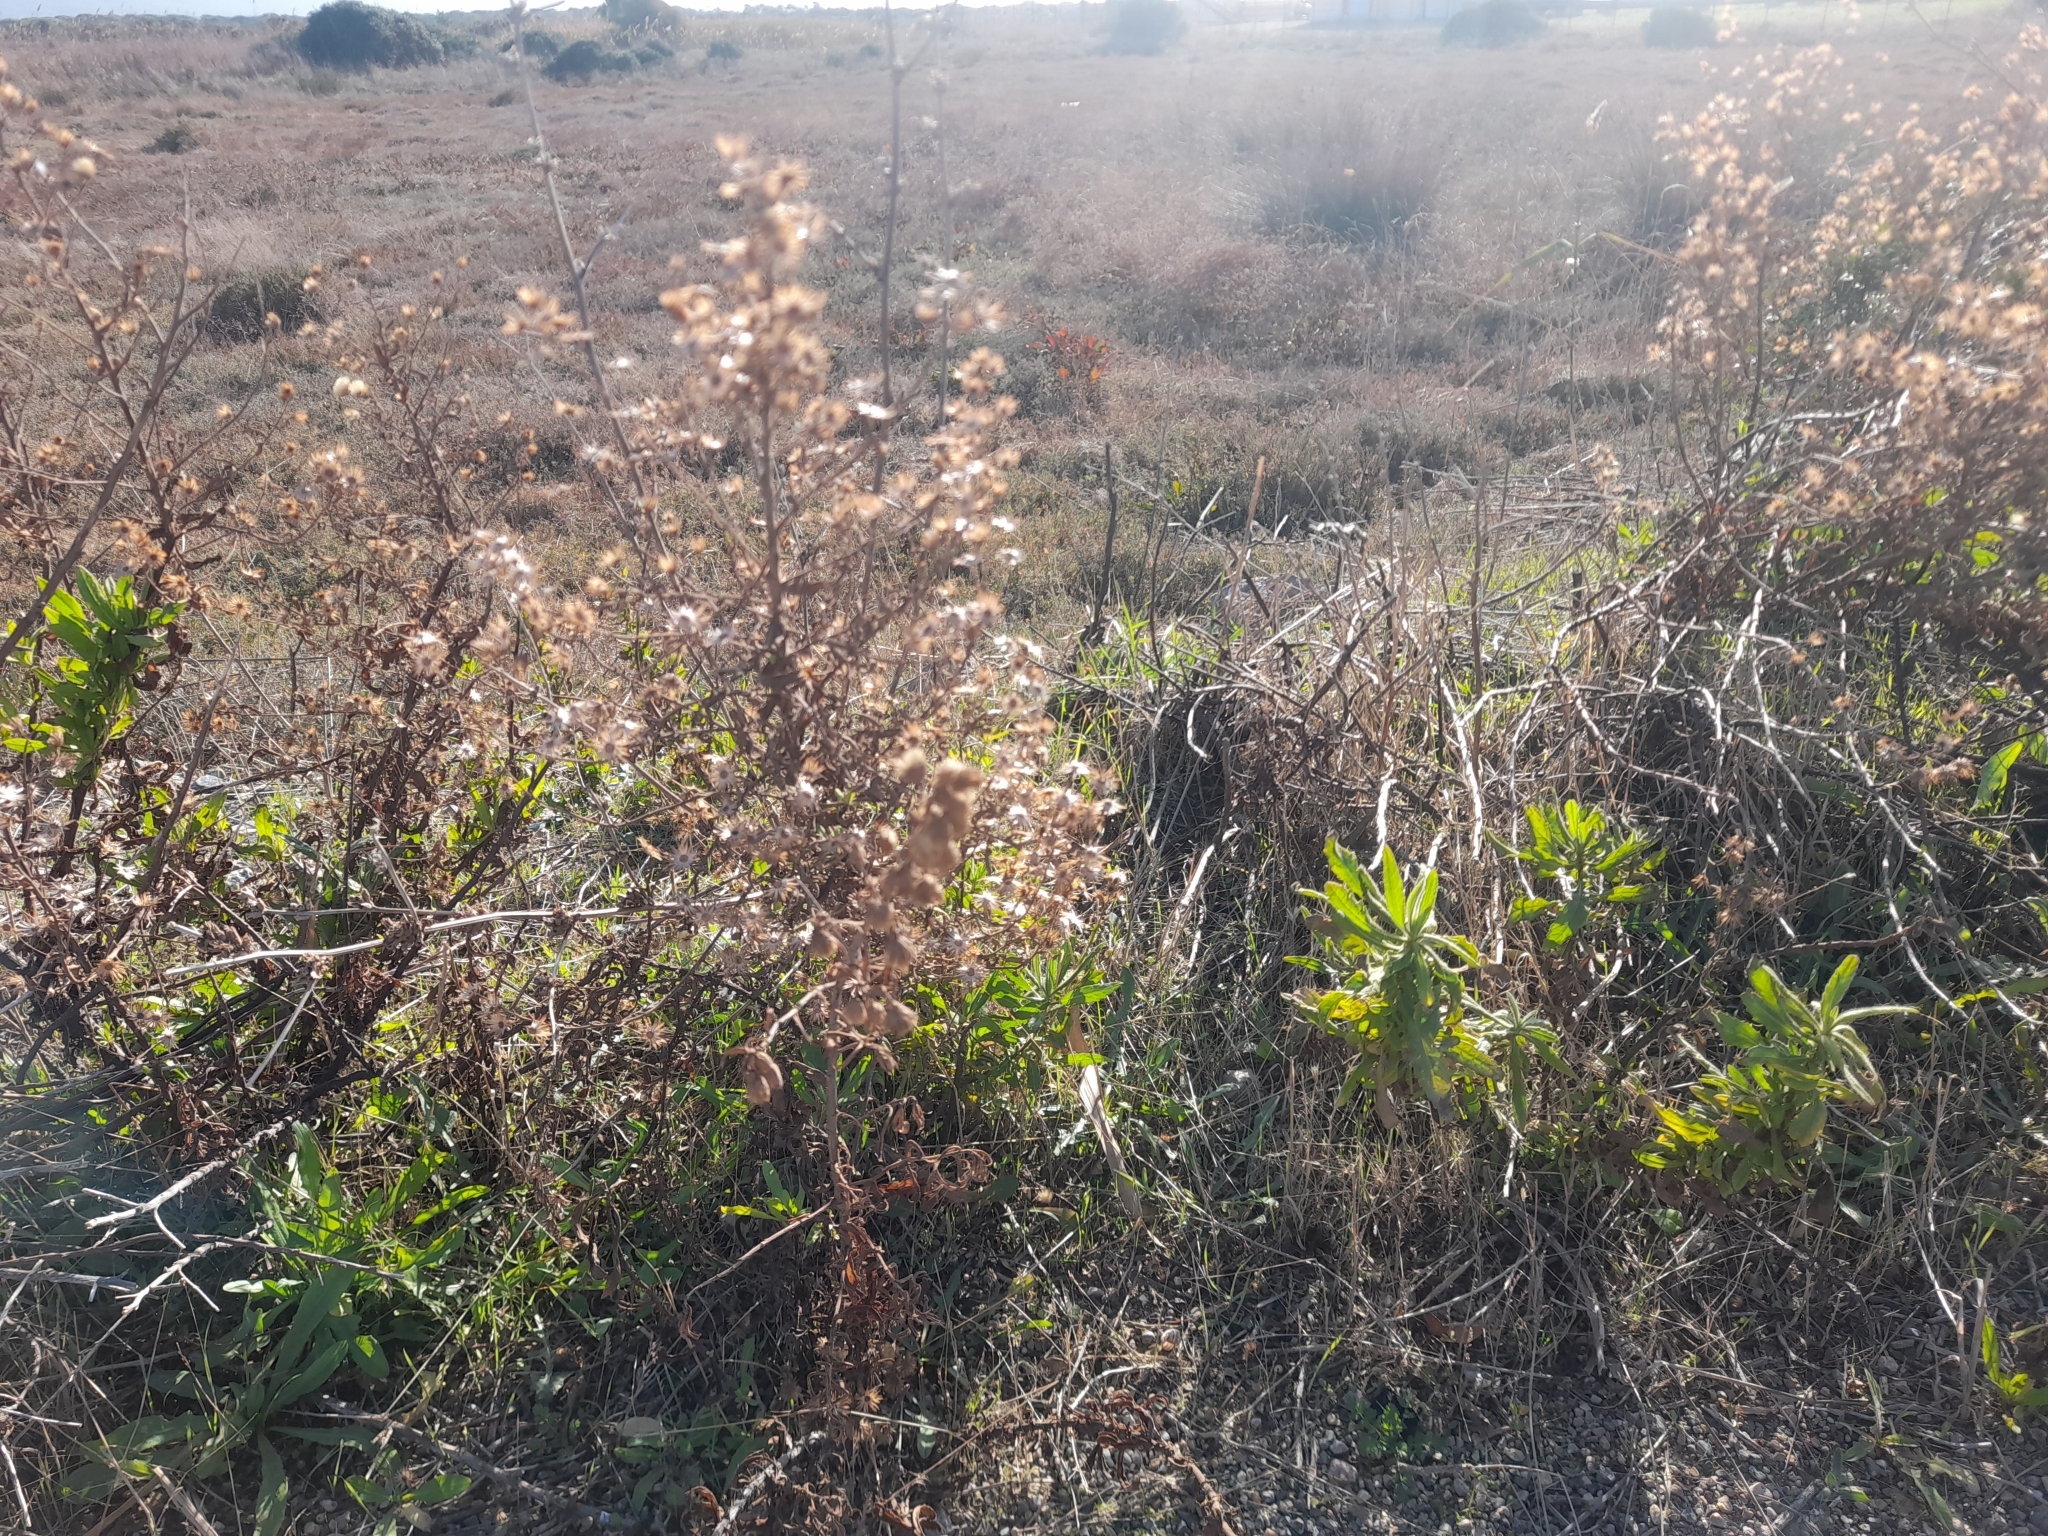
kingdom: Plantae
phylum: Tracheophyta
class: Magnoliopsida
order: Asterales
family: Asteraceae
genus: Dittrichia
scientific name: Dittrichia viscosa
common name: Woody fleabane
